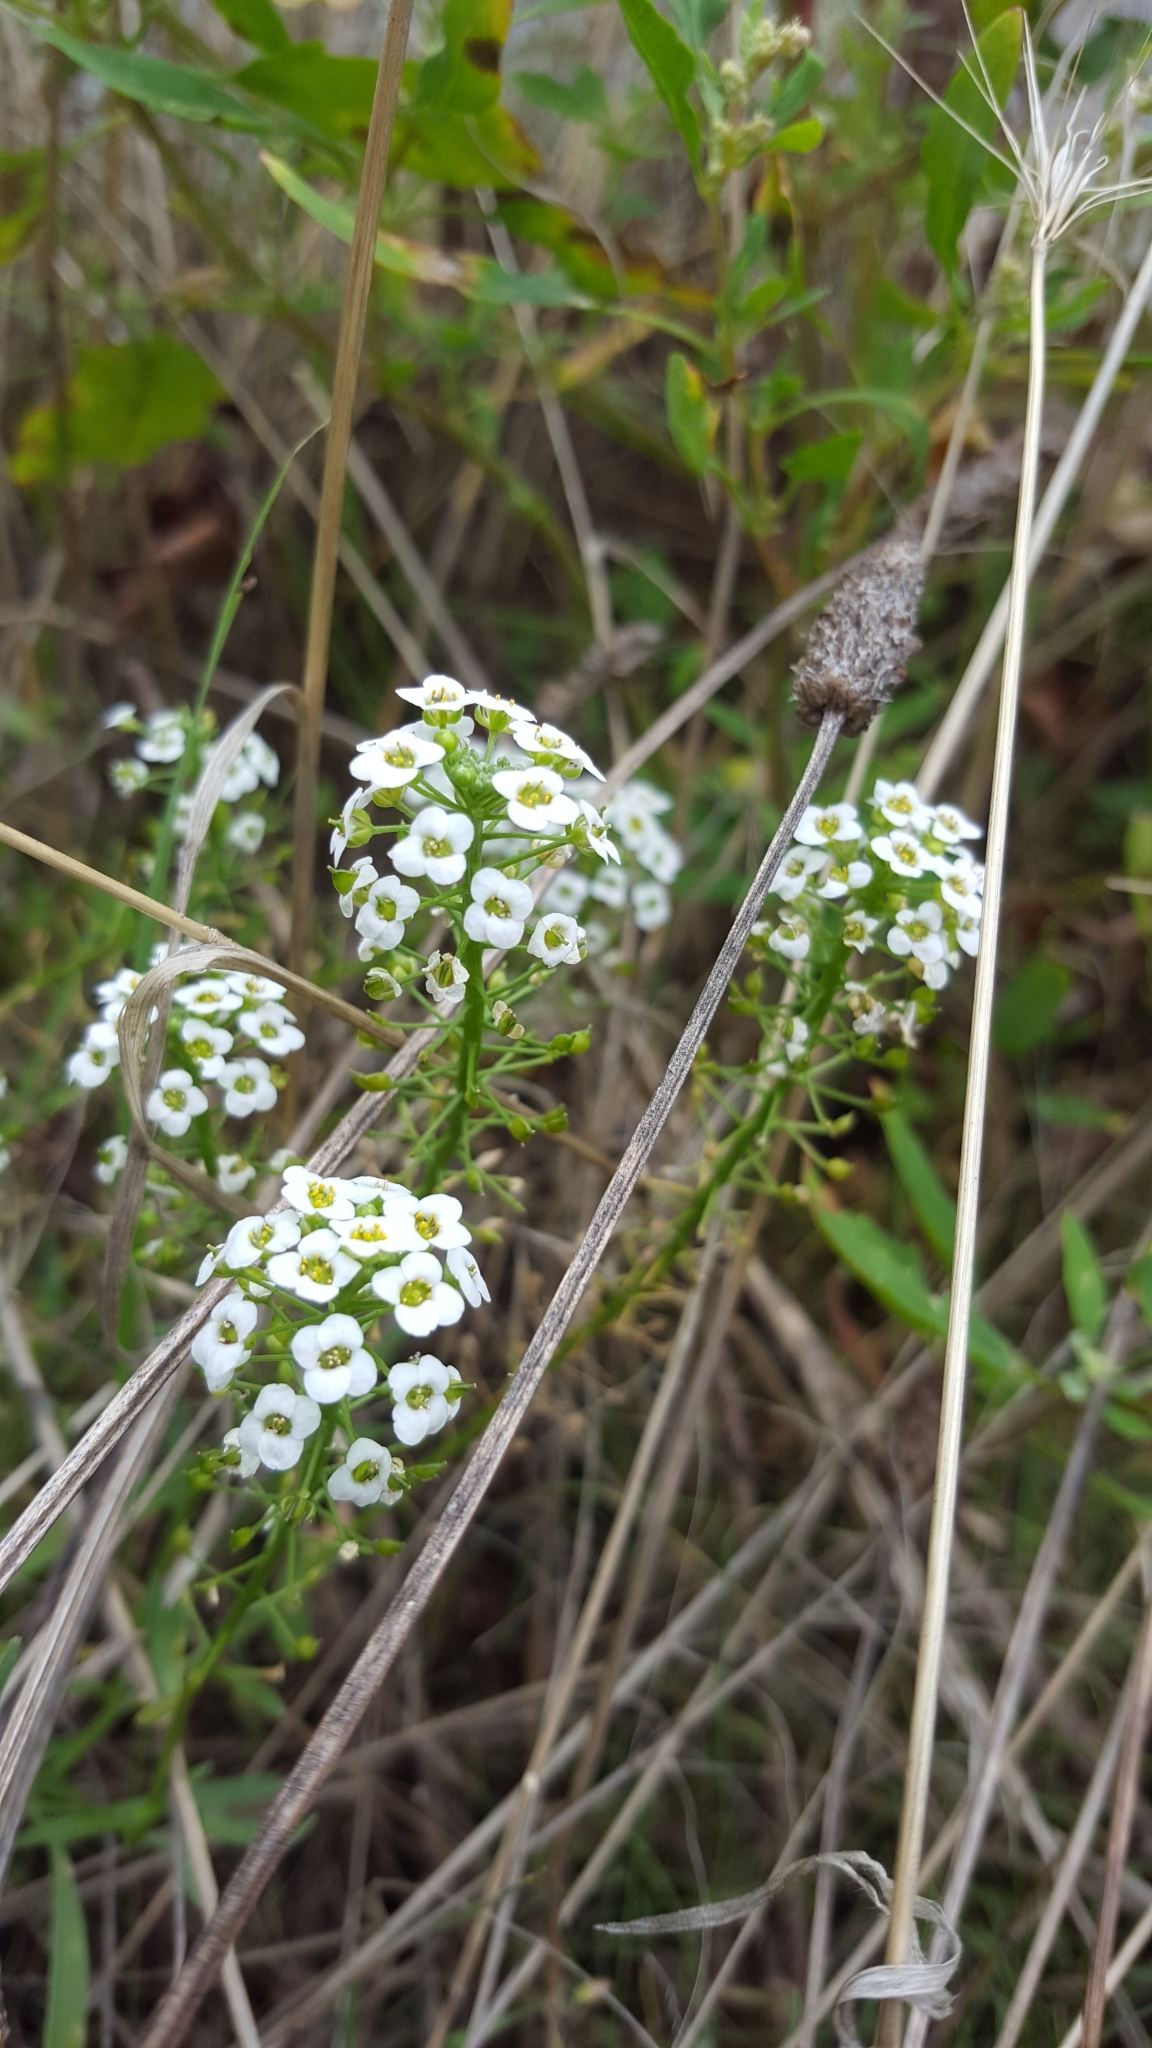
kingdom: Plantae
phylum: Tracheophyta
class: Magnoliopsida
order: Brassicales
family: Brassicaceae
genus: Lobularia
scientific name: Lobularia maritima
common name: Sweet alison
